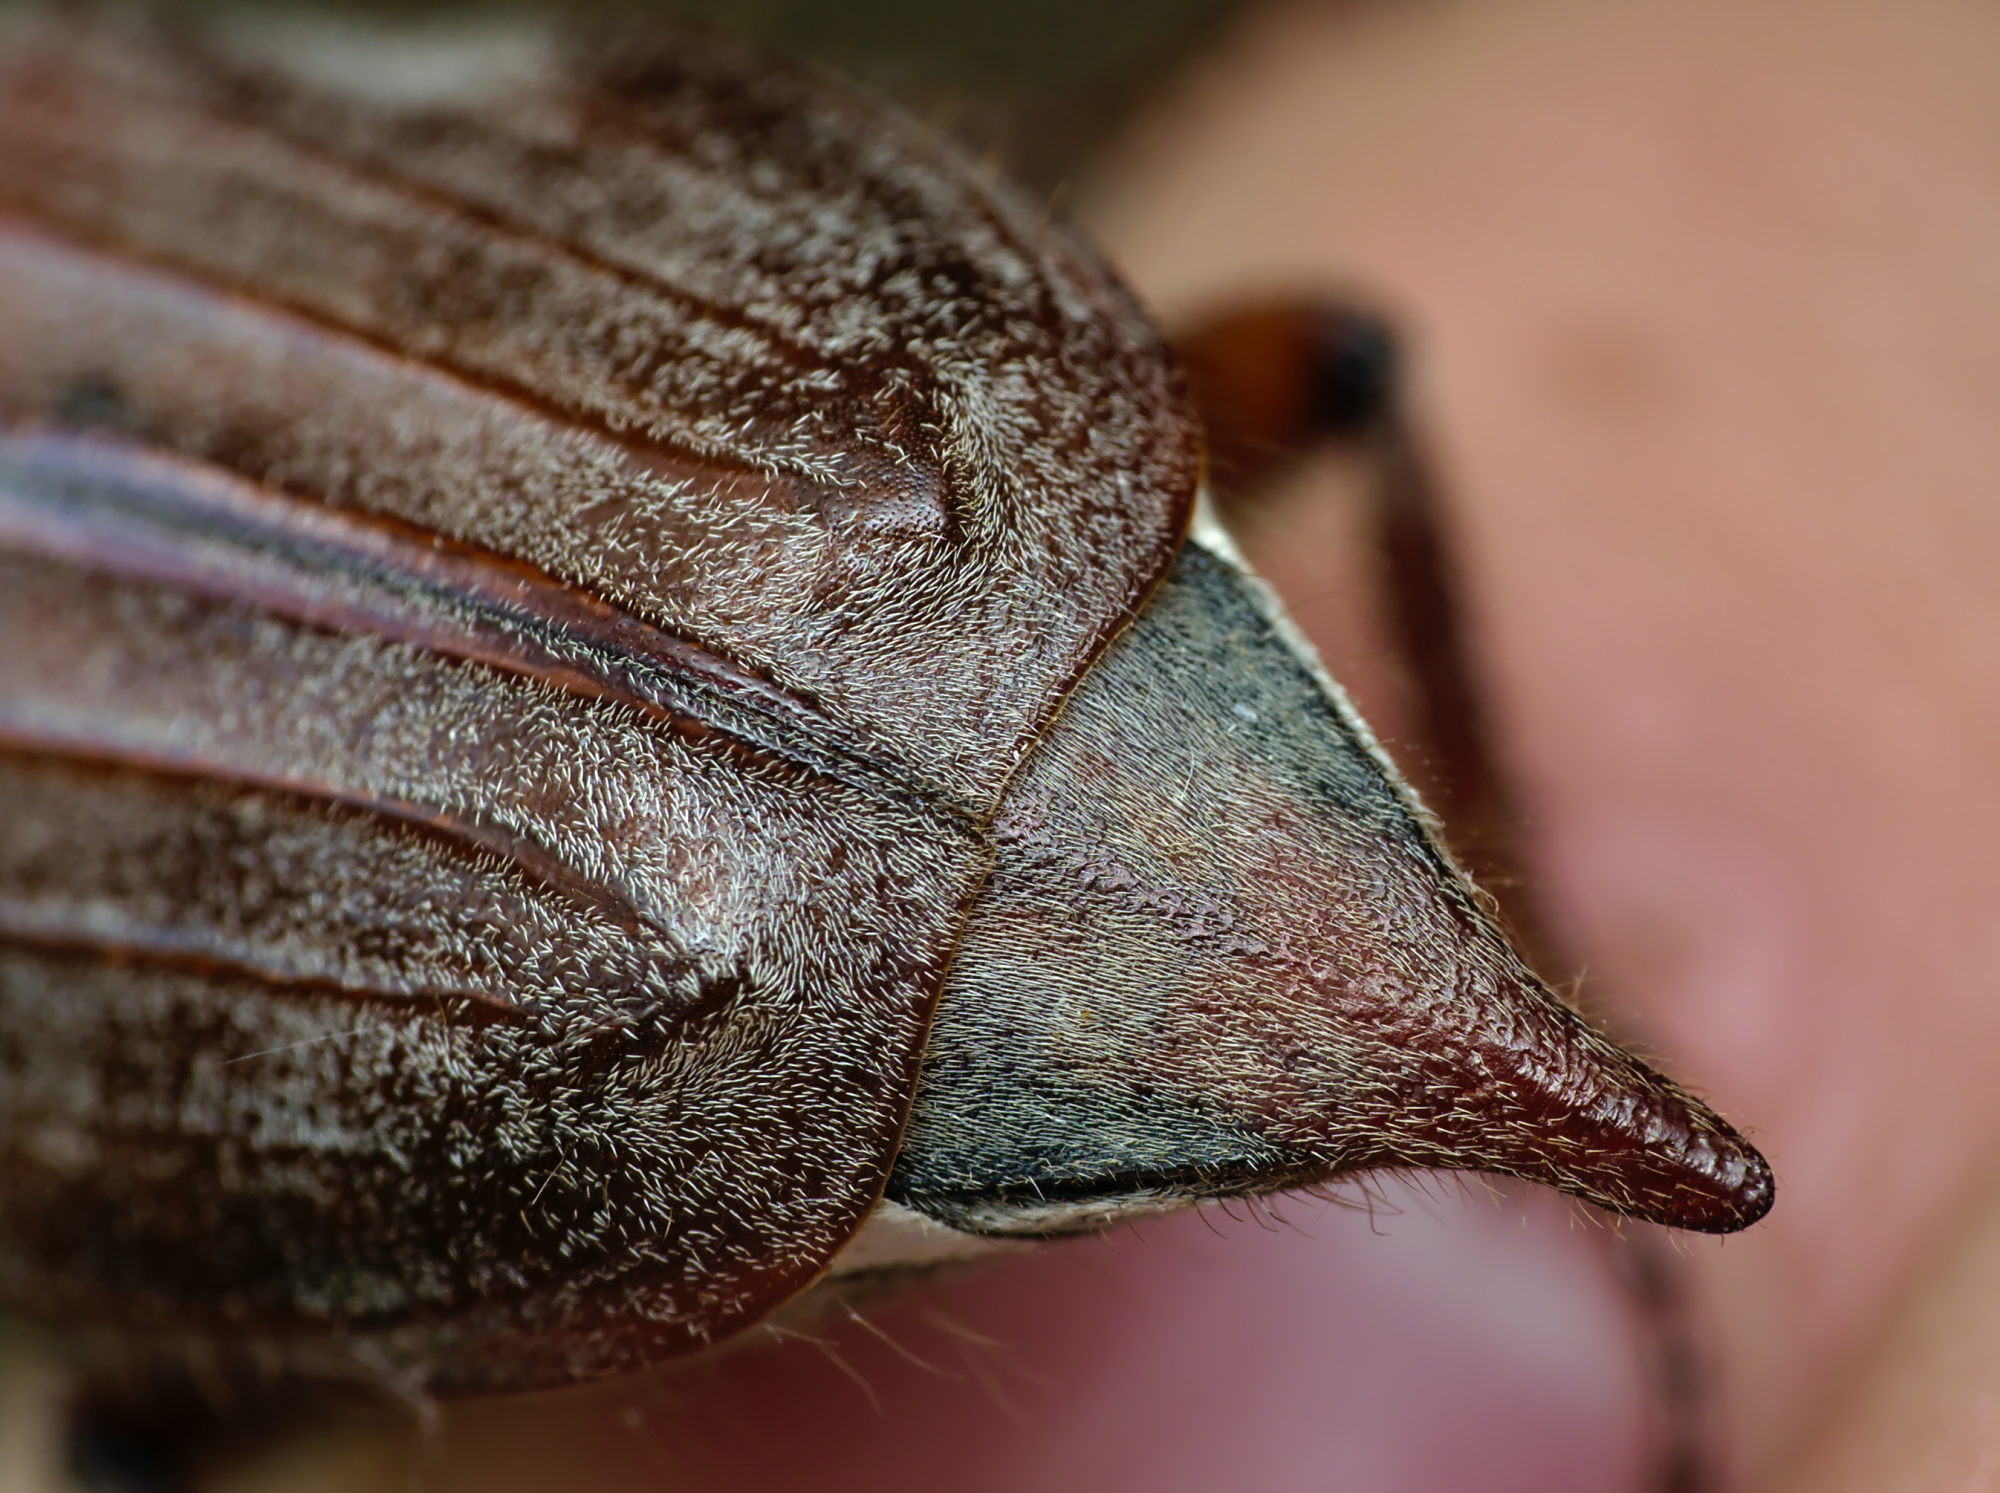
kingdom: Animalia
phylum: Arthropoda
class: Insecta
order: Coleoptera
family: Scarabaeidae
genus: Melolontha
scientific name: Melolontha melolontha
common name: Cockchafer maybeetle
